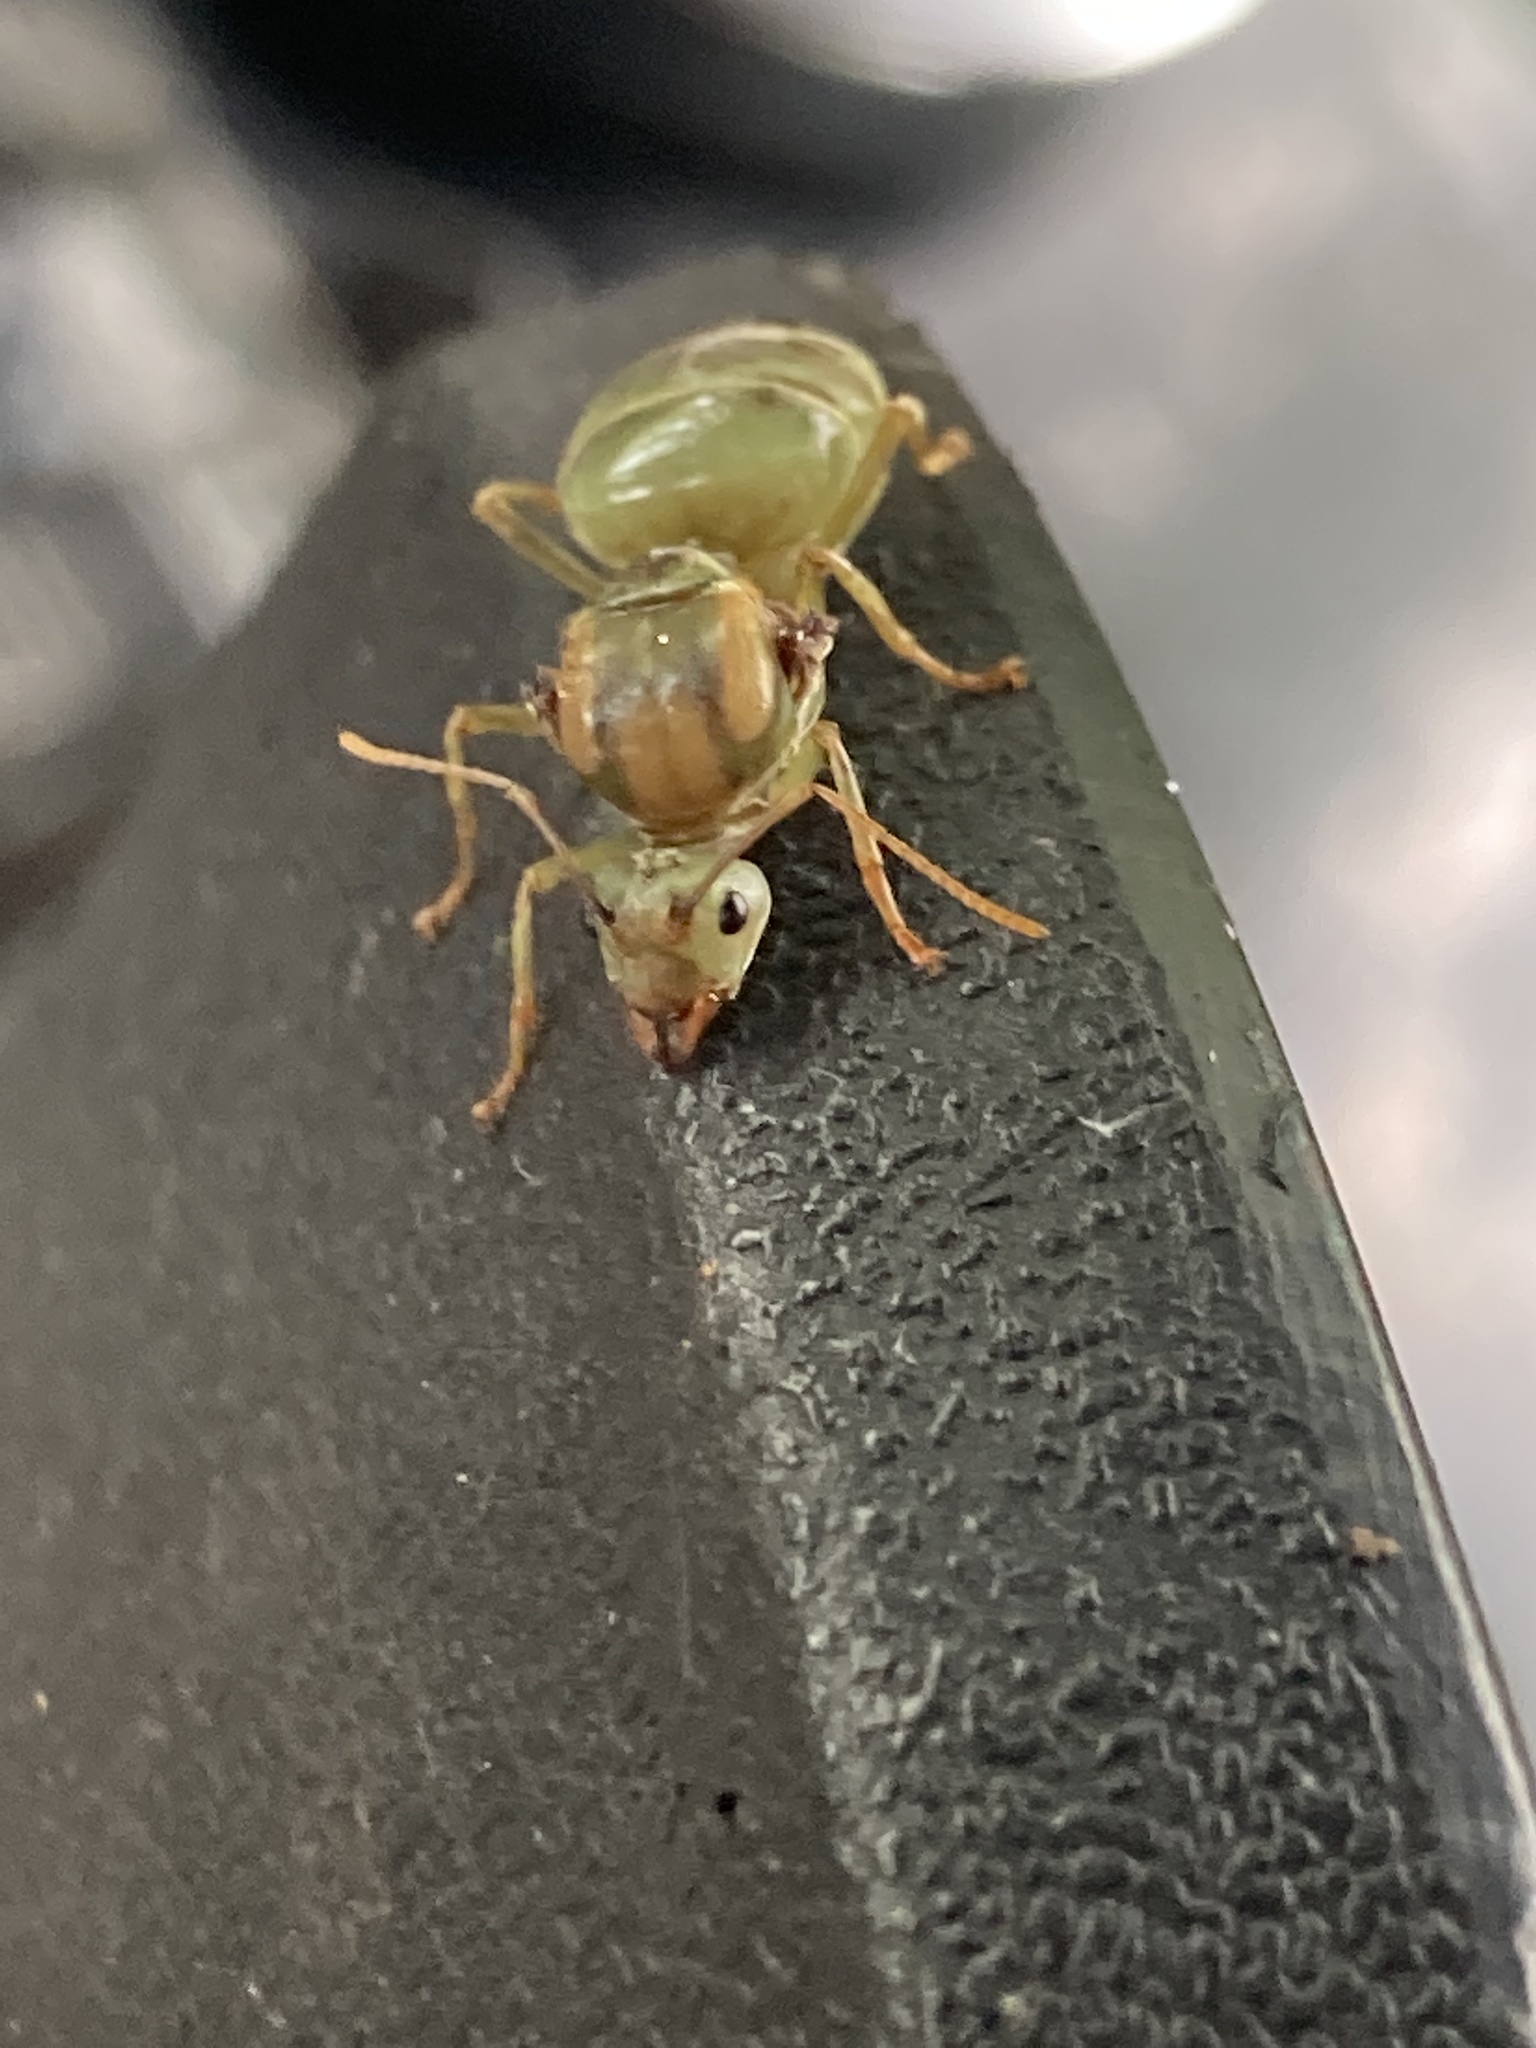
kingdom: Animalia
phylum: Arthropoda
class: Insecta
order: Hymenoptera
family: Formicidae
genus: Oecophylla
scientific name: Oecophylla smaragdina
